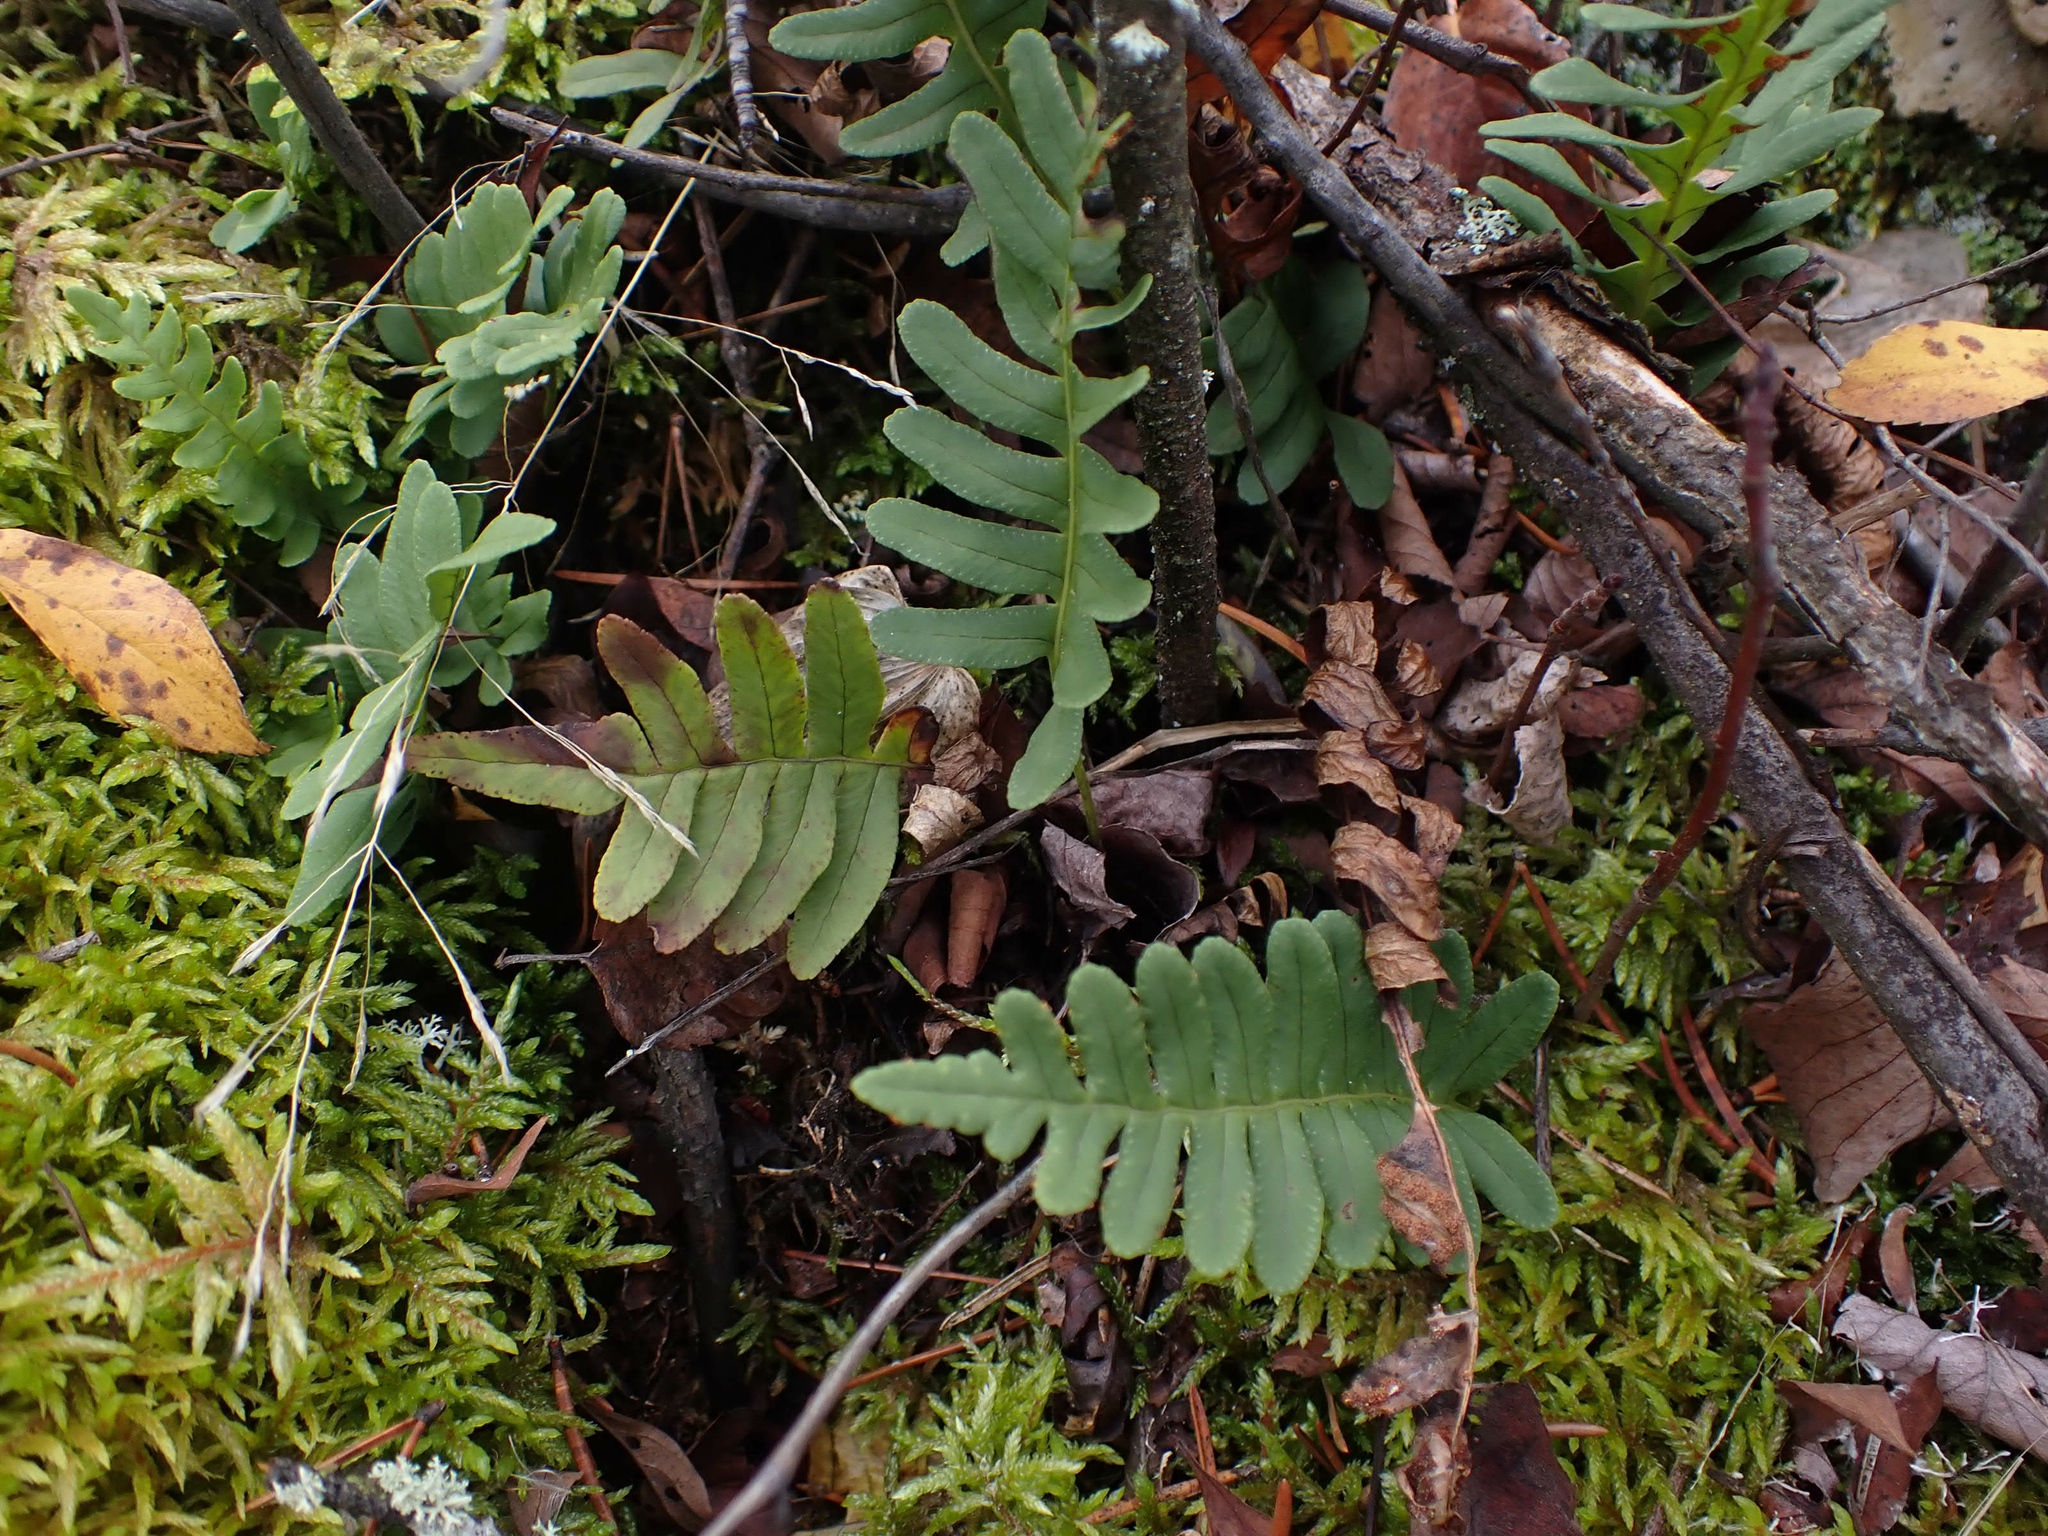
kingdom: Plantae
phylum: Tracheophyta
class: Polypodiopsida
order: Polypodiales
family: Polypodiaceae
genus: Polypodium
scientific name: Polypodium virginianum
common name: American wall fern
